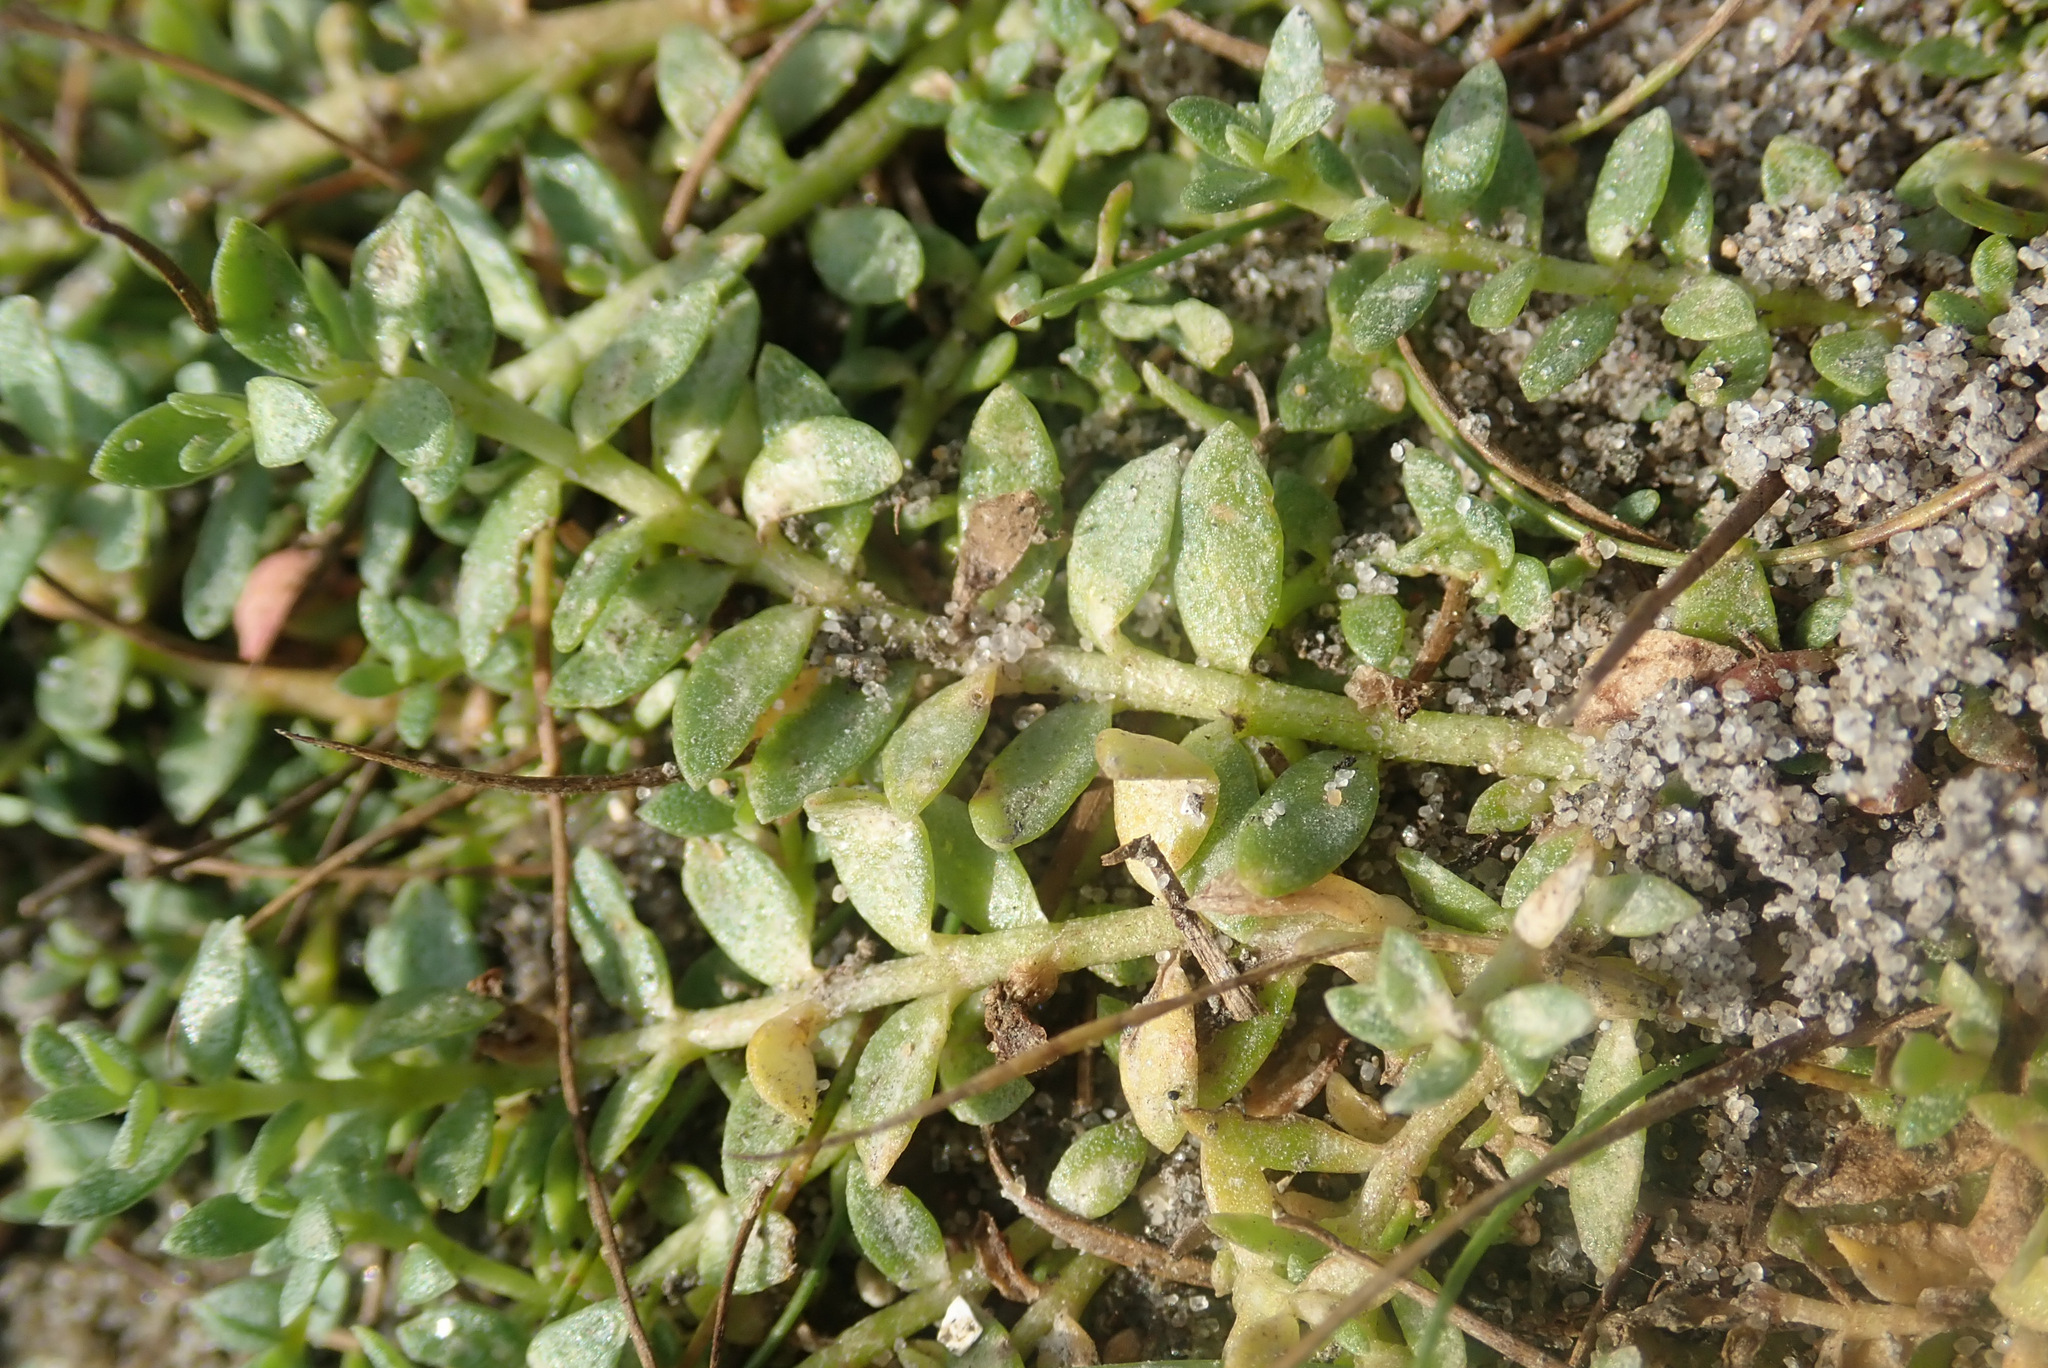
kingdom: Plantae
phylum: Tracheophyta
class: Magnoliopsida
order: Ericales
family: Primulaceae
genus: Lysimachia
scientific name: Lysimachia maritima
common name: Sea milkwort
